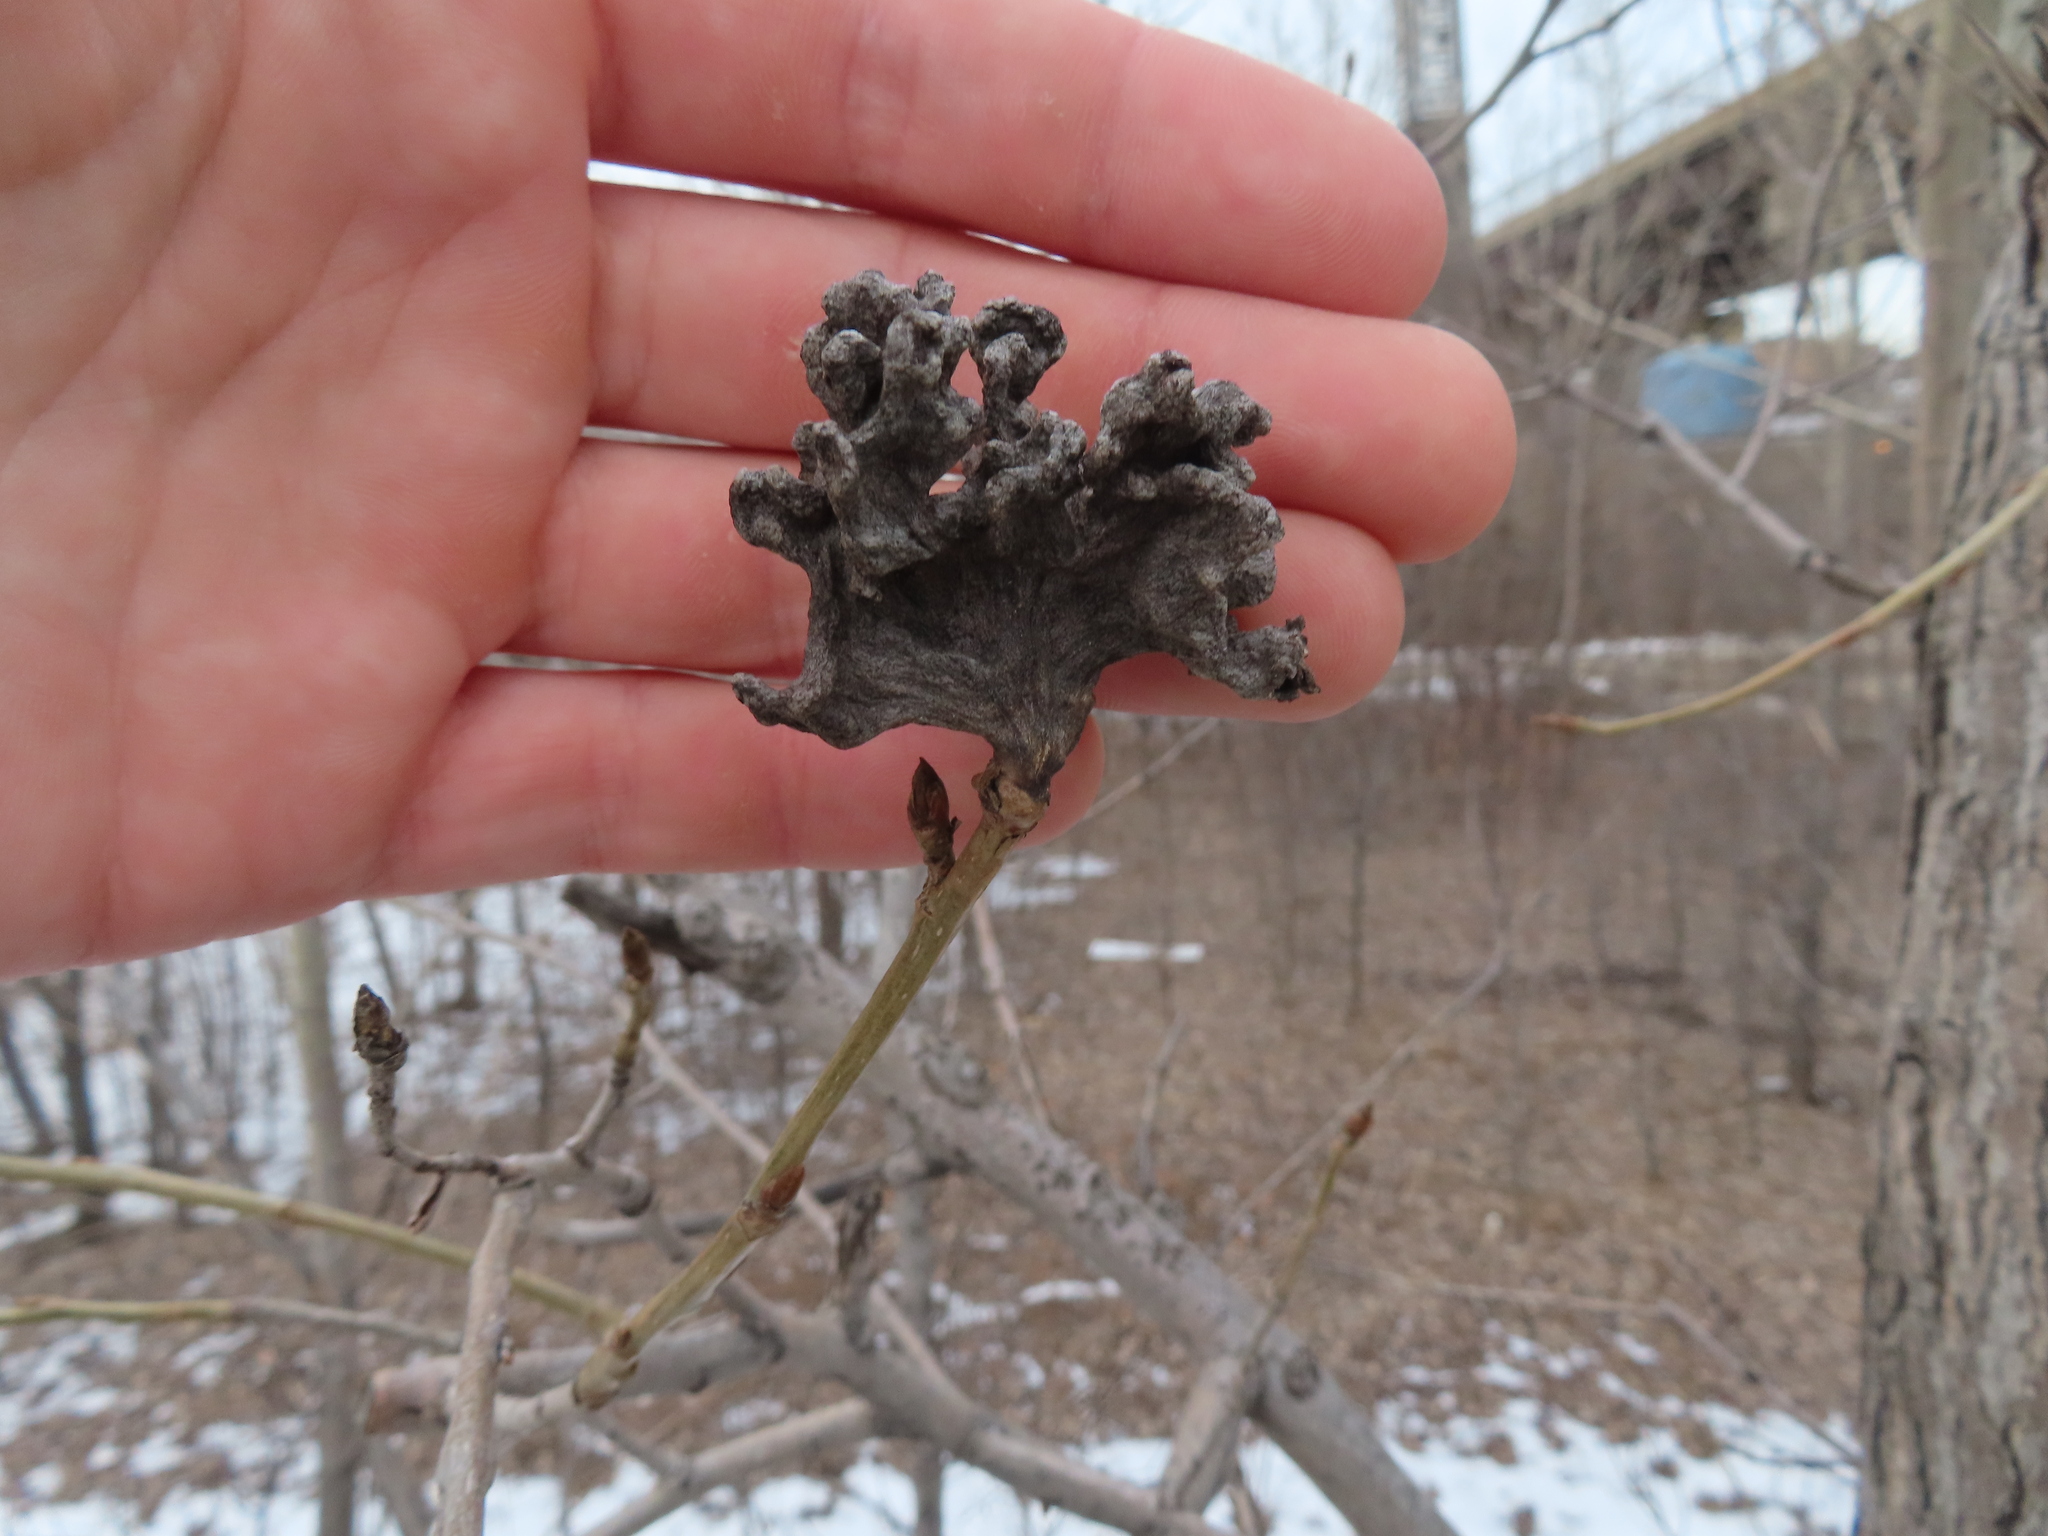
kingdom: Animalia
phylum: Arthropoda
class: Insecta
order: Hemiptera
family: Aphididae
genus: Mordwilkoja
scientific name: Mordwilkoja vagabunda
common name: Poplar vagabond aphid
